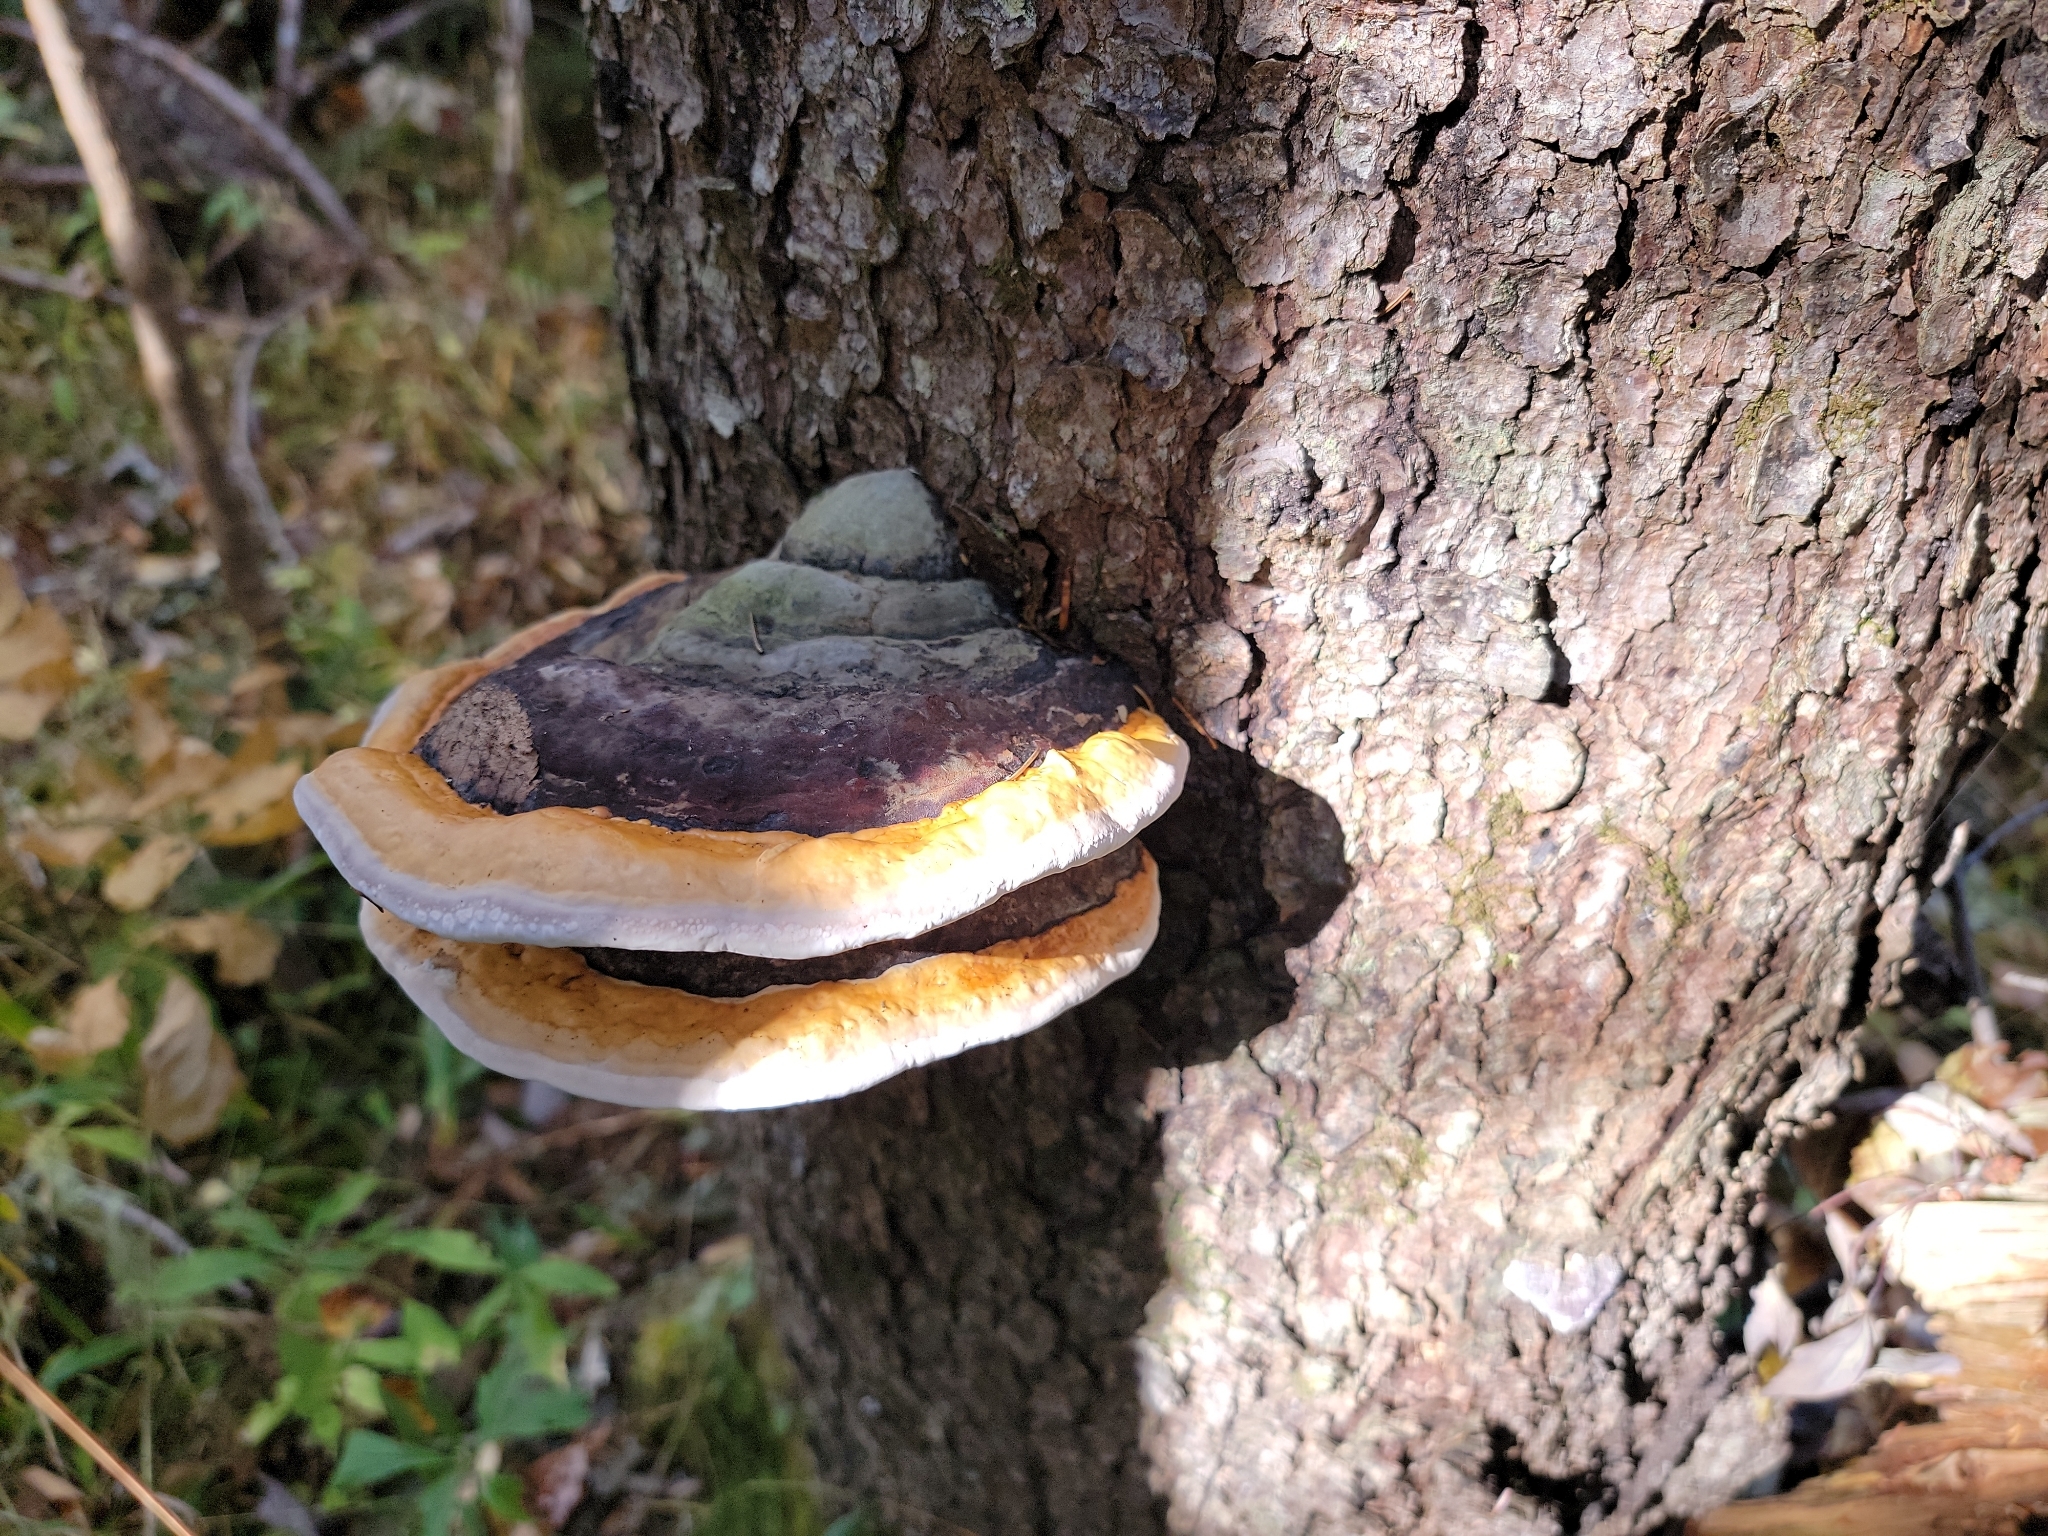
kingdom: Fungi
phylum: Basidiomycota
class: Agaricomycetes
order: Polyporales
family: Fomitopsidaceae
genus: Fomitopsis
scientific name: Fomitopsis mounceae
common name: Northern red belt
